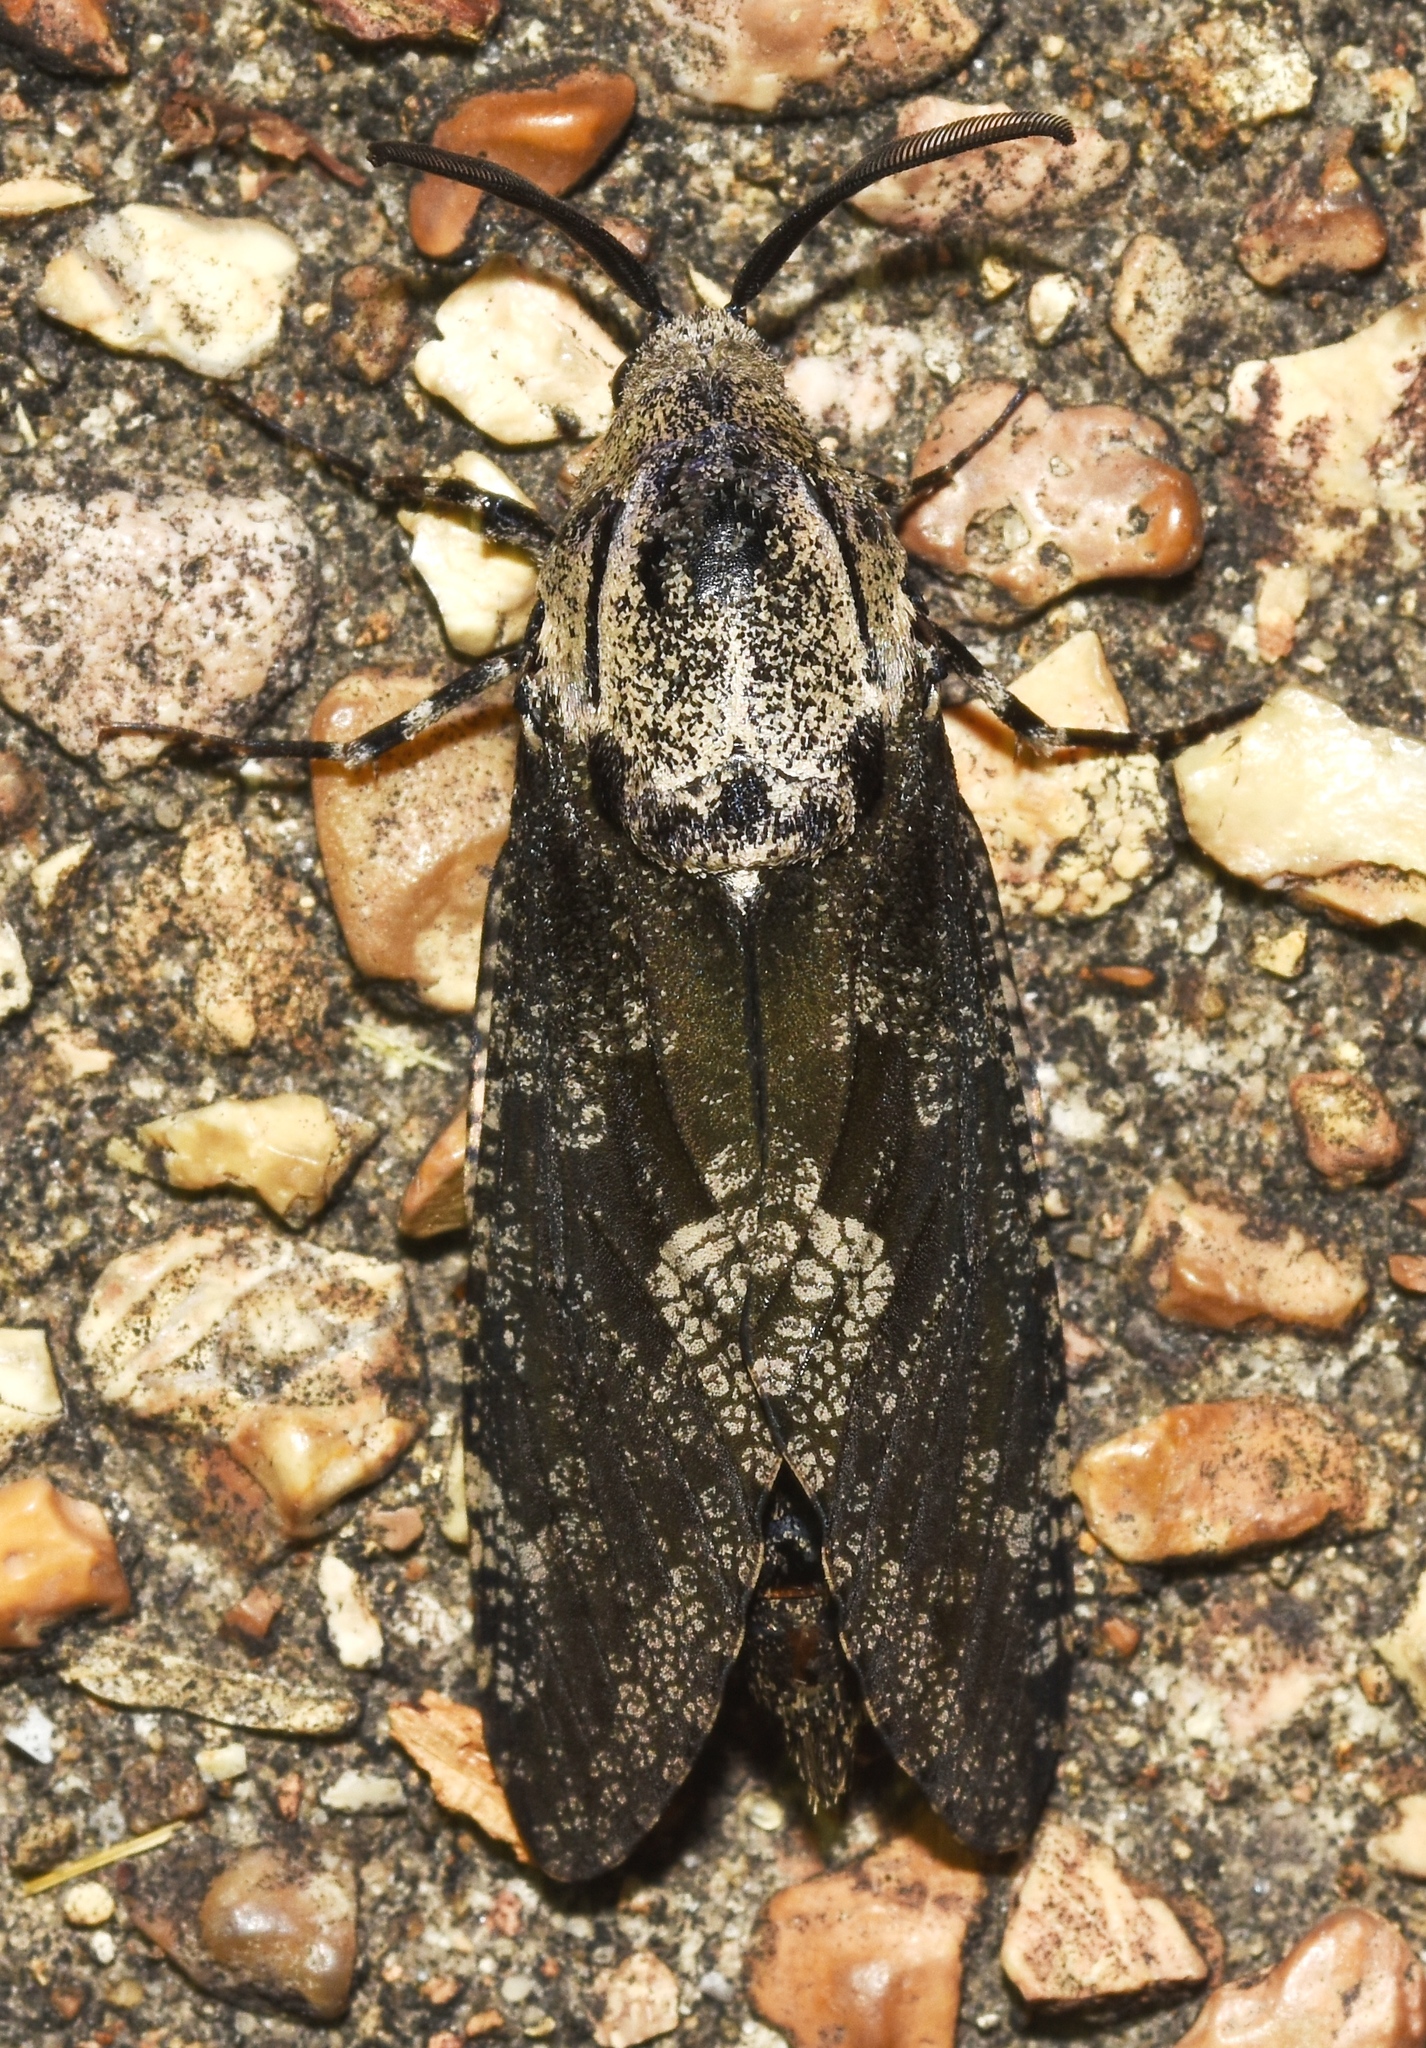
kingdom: Animalia
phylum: Arthropoda
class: Insecta
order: Lepidoptera
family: Cossidae
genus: Prionoxystus
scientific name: Prionoxystus robiniae
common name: Carpenterworm
